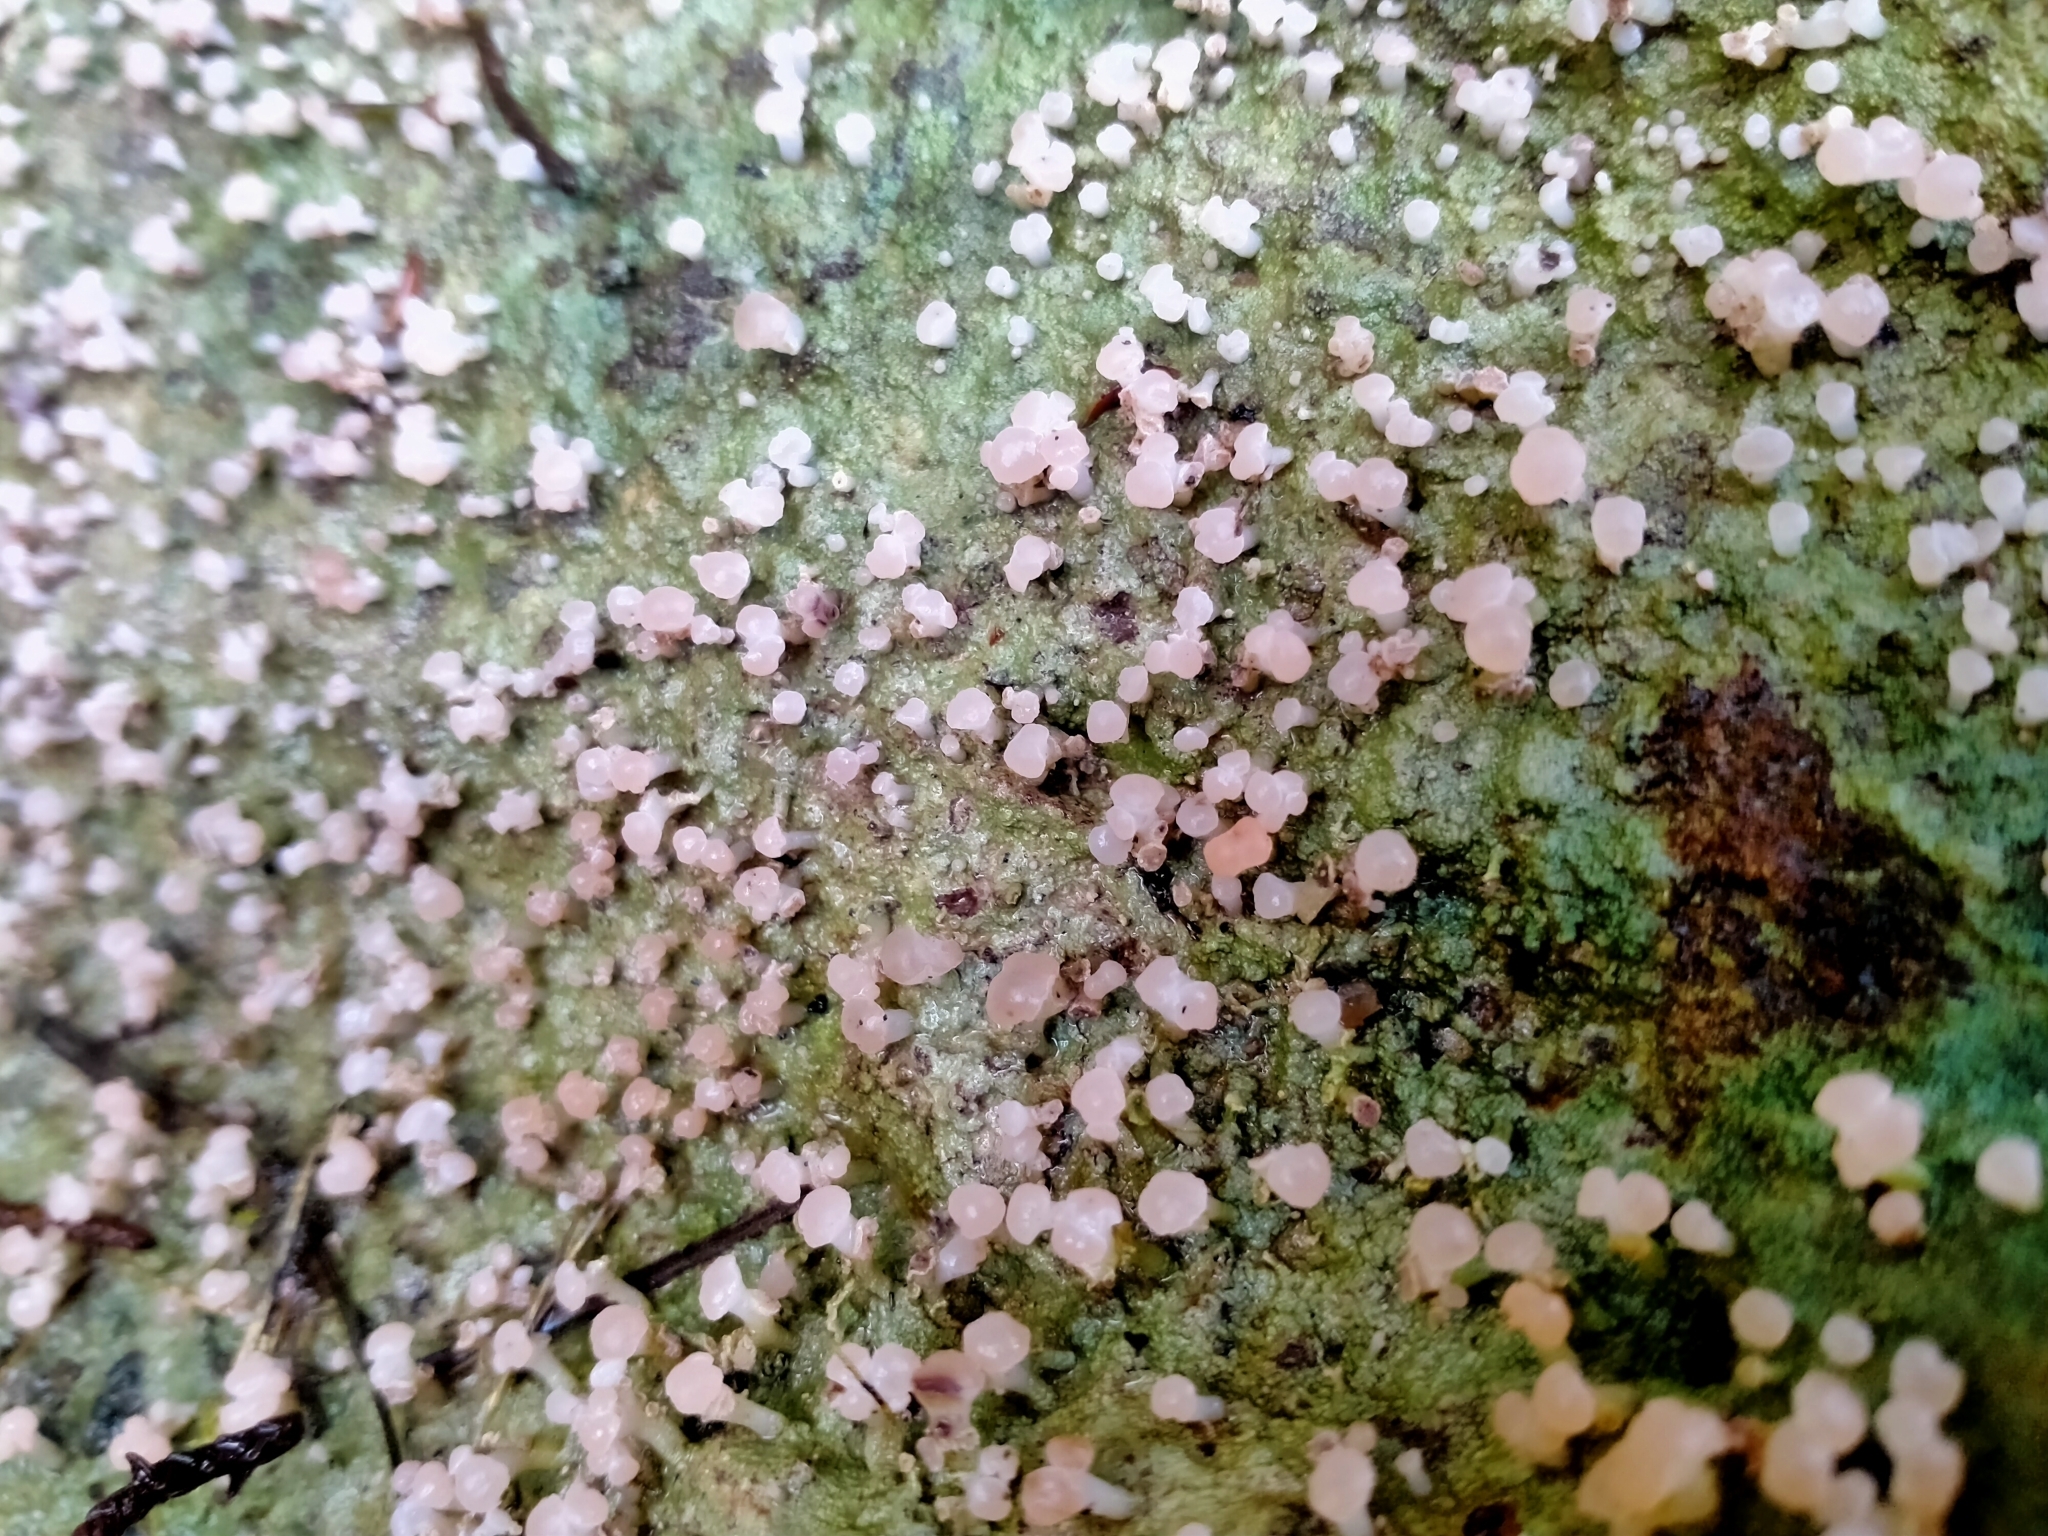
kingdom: Fungi
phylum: Ascomycota
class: Lecanoromycetes
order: Baeomycetales
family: Baeomycetaceae
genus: Baeomyces
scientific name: Baeomyces heteromorphus
